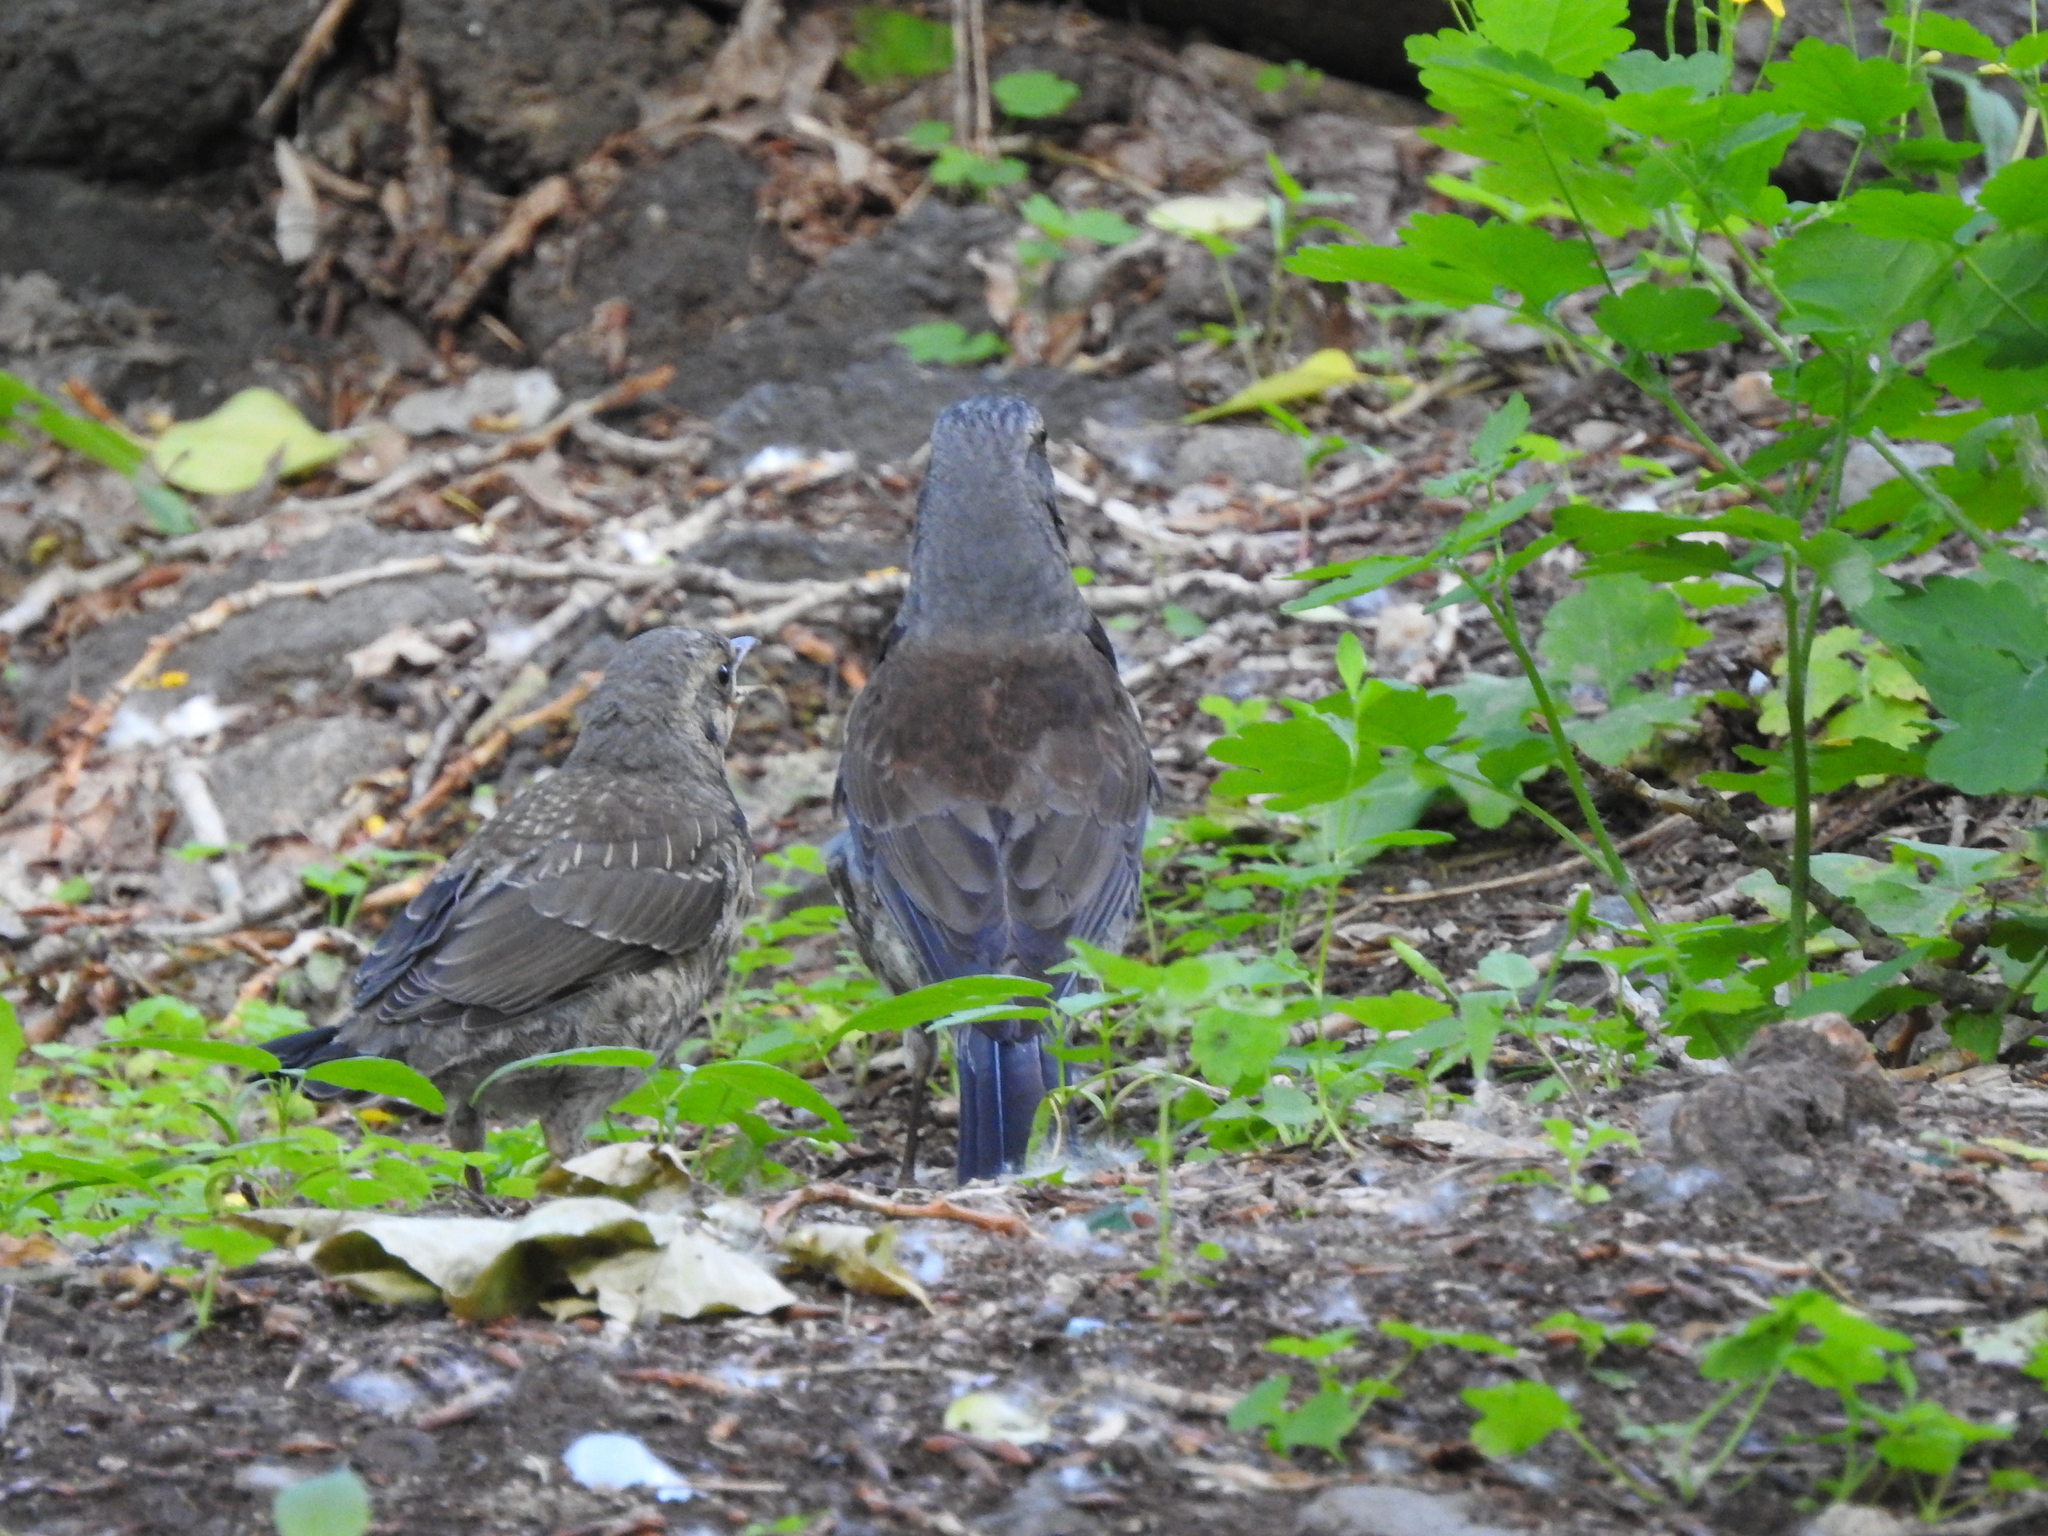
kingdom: Animalia
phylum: Chordata
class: Aves
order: Passeriformes
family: Turdidae
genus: Turdus
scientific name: Turdus pilaris
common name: Fieldfare
